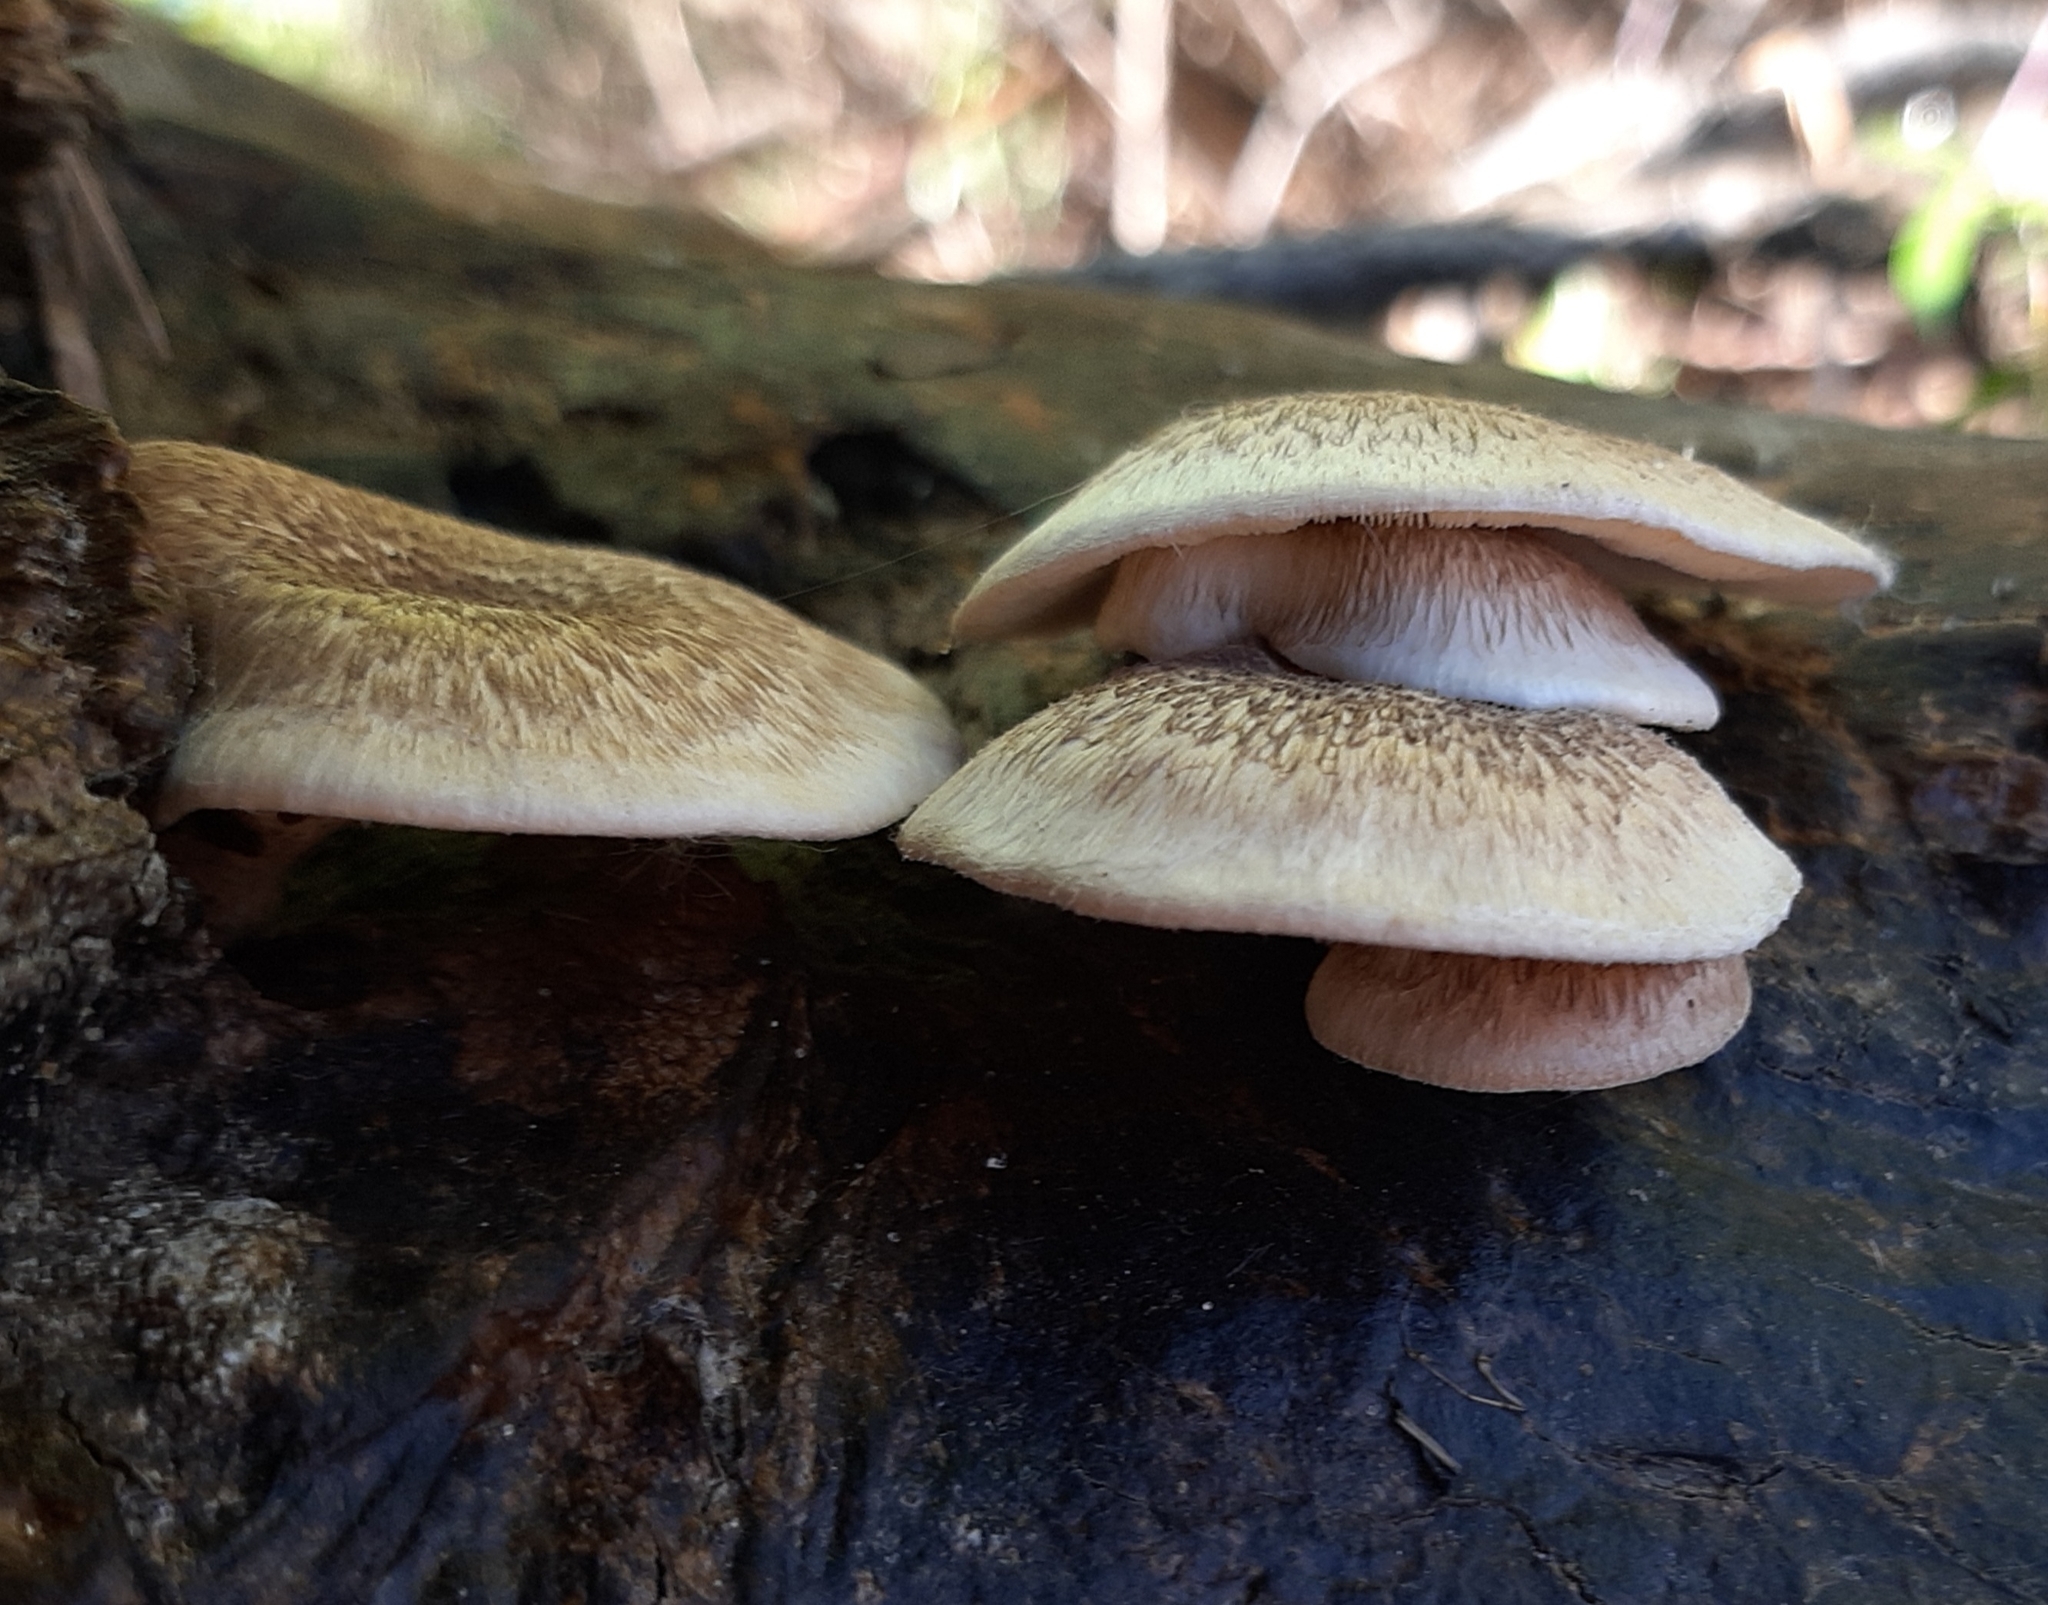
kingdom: Fungi
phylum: Basidiomycota
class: Agaricomycetes
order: Polyporales
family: Polyporaceae
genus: Lentinus
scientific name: Lentinus tigrinus
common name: Tiger sawgill
